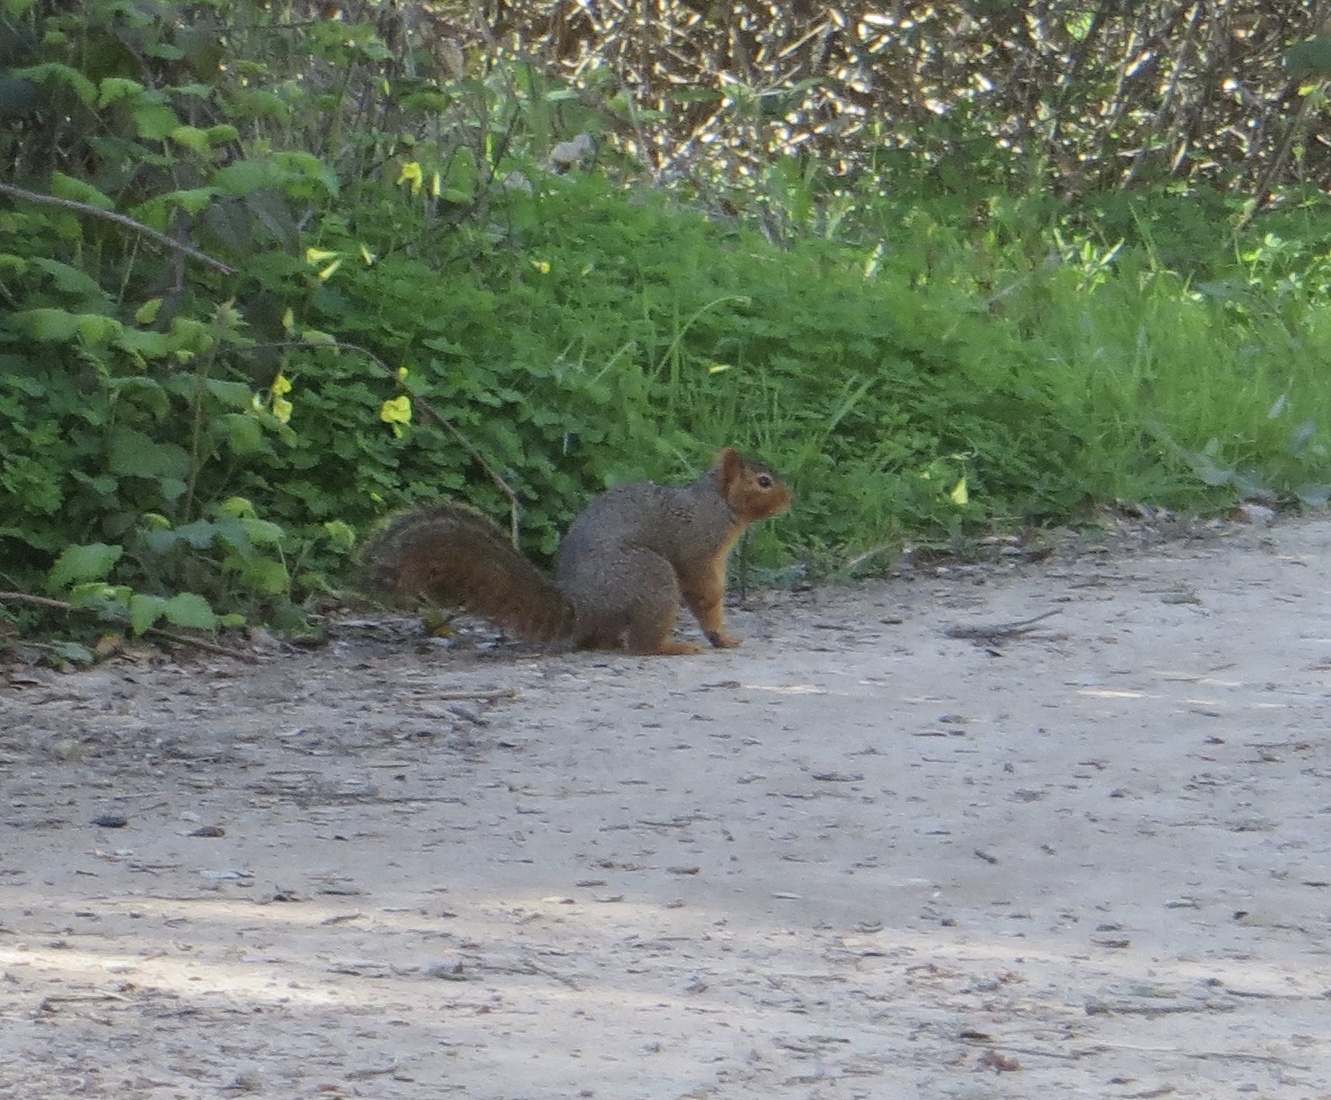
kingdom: Animalia
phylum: Chordata
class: Mammalia
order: Rodentia
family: Sciuridae
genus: Sciurus
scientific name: Sciurus niger
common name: Fox squirrel
